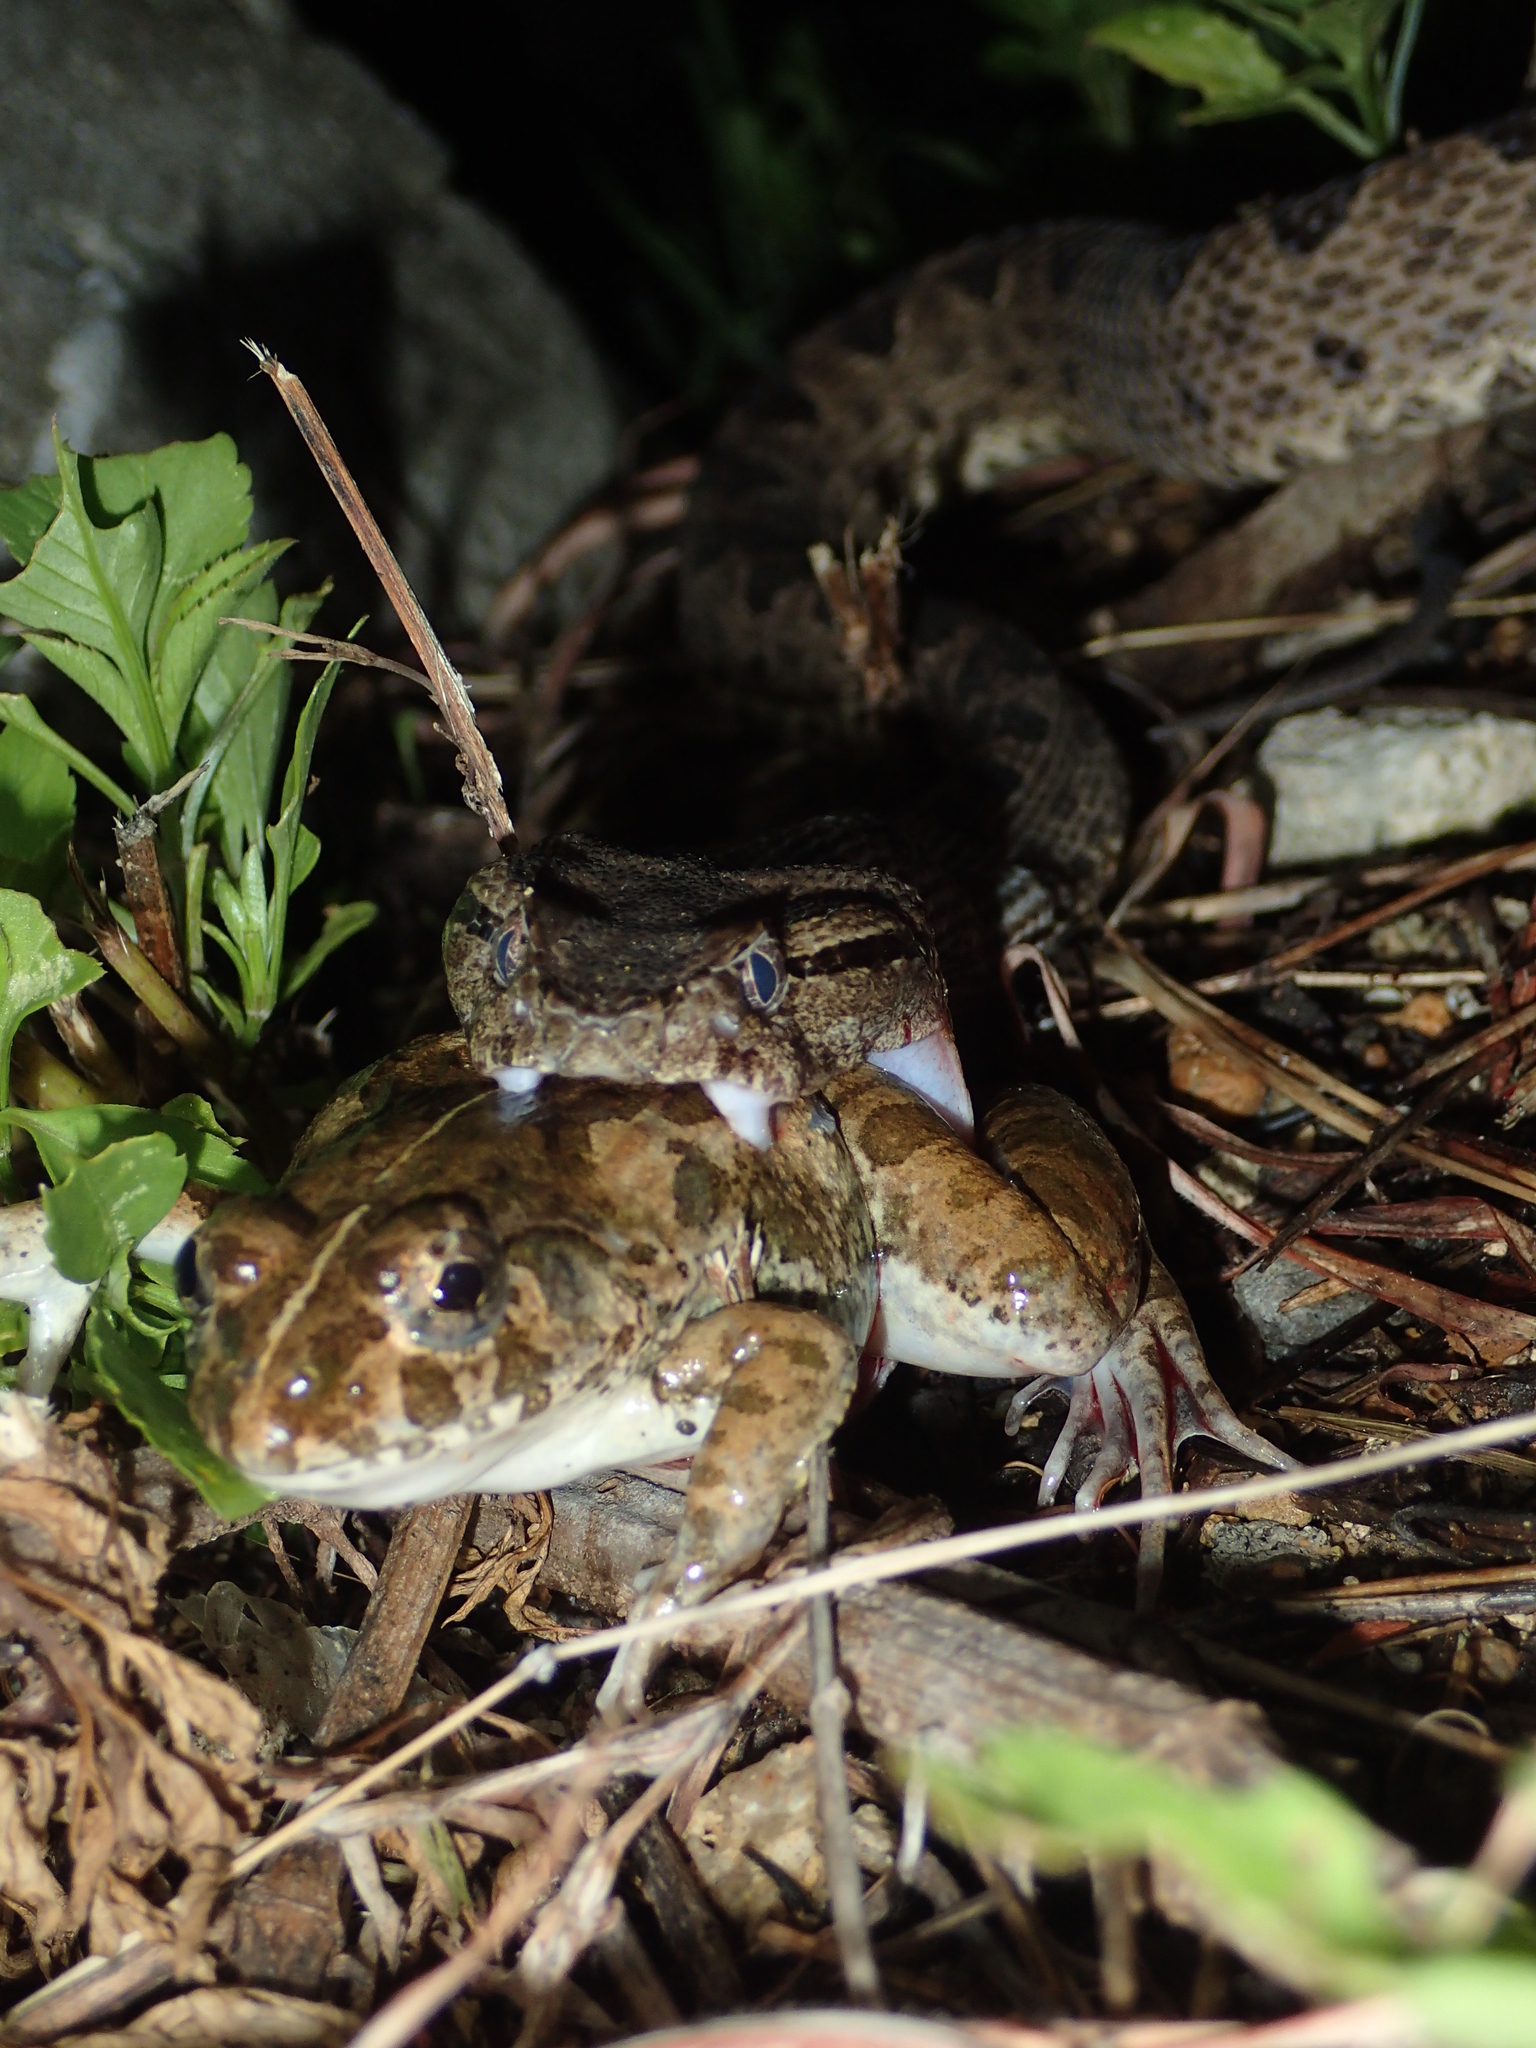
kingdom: Animalia
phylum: Chordata
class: Squamata
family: Viperidae
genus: Protobothrops
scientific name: Protobothrops elegans
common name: Elegant pitviper
